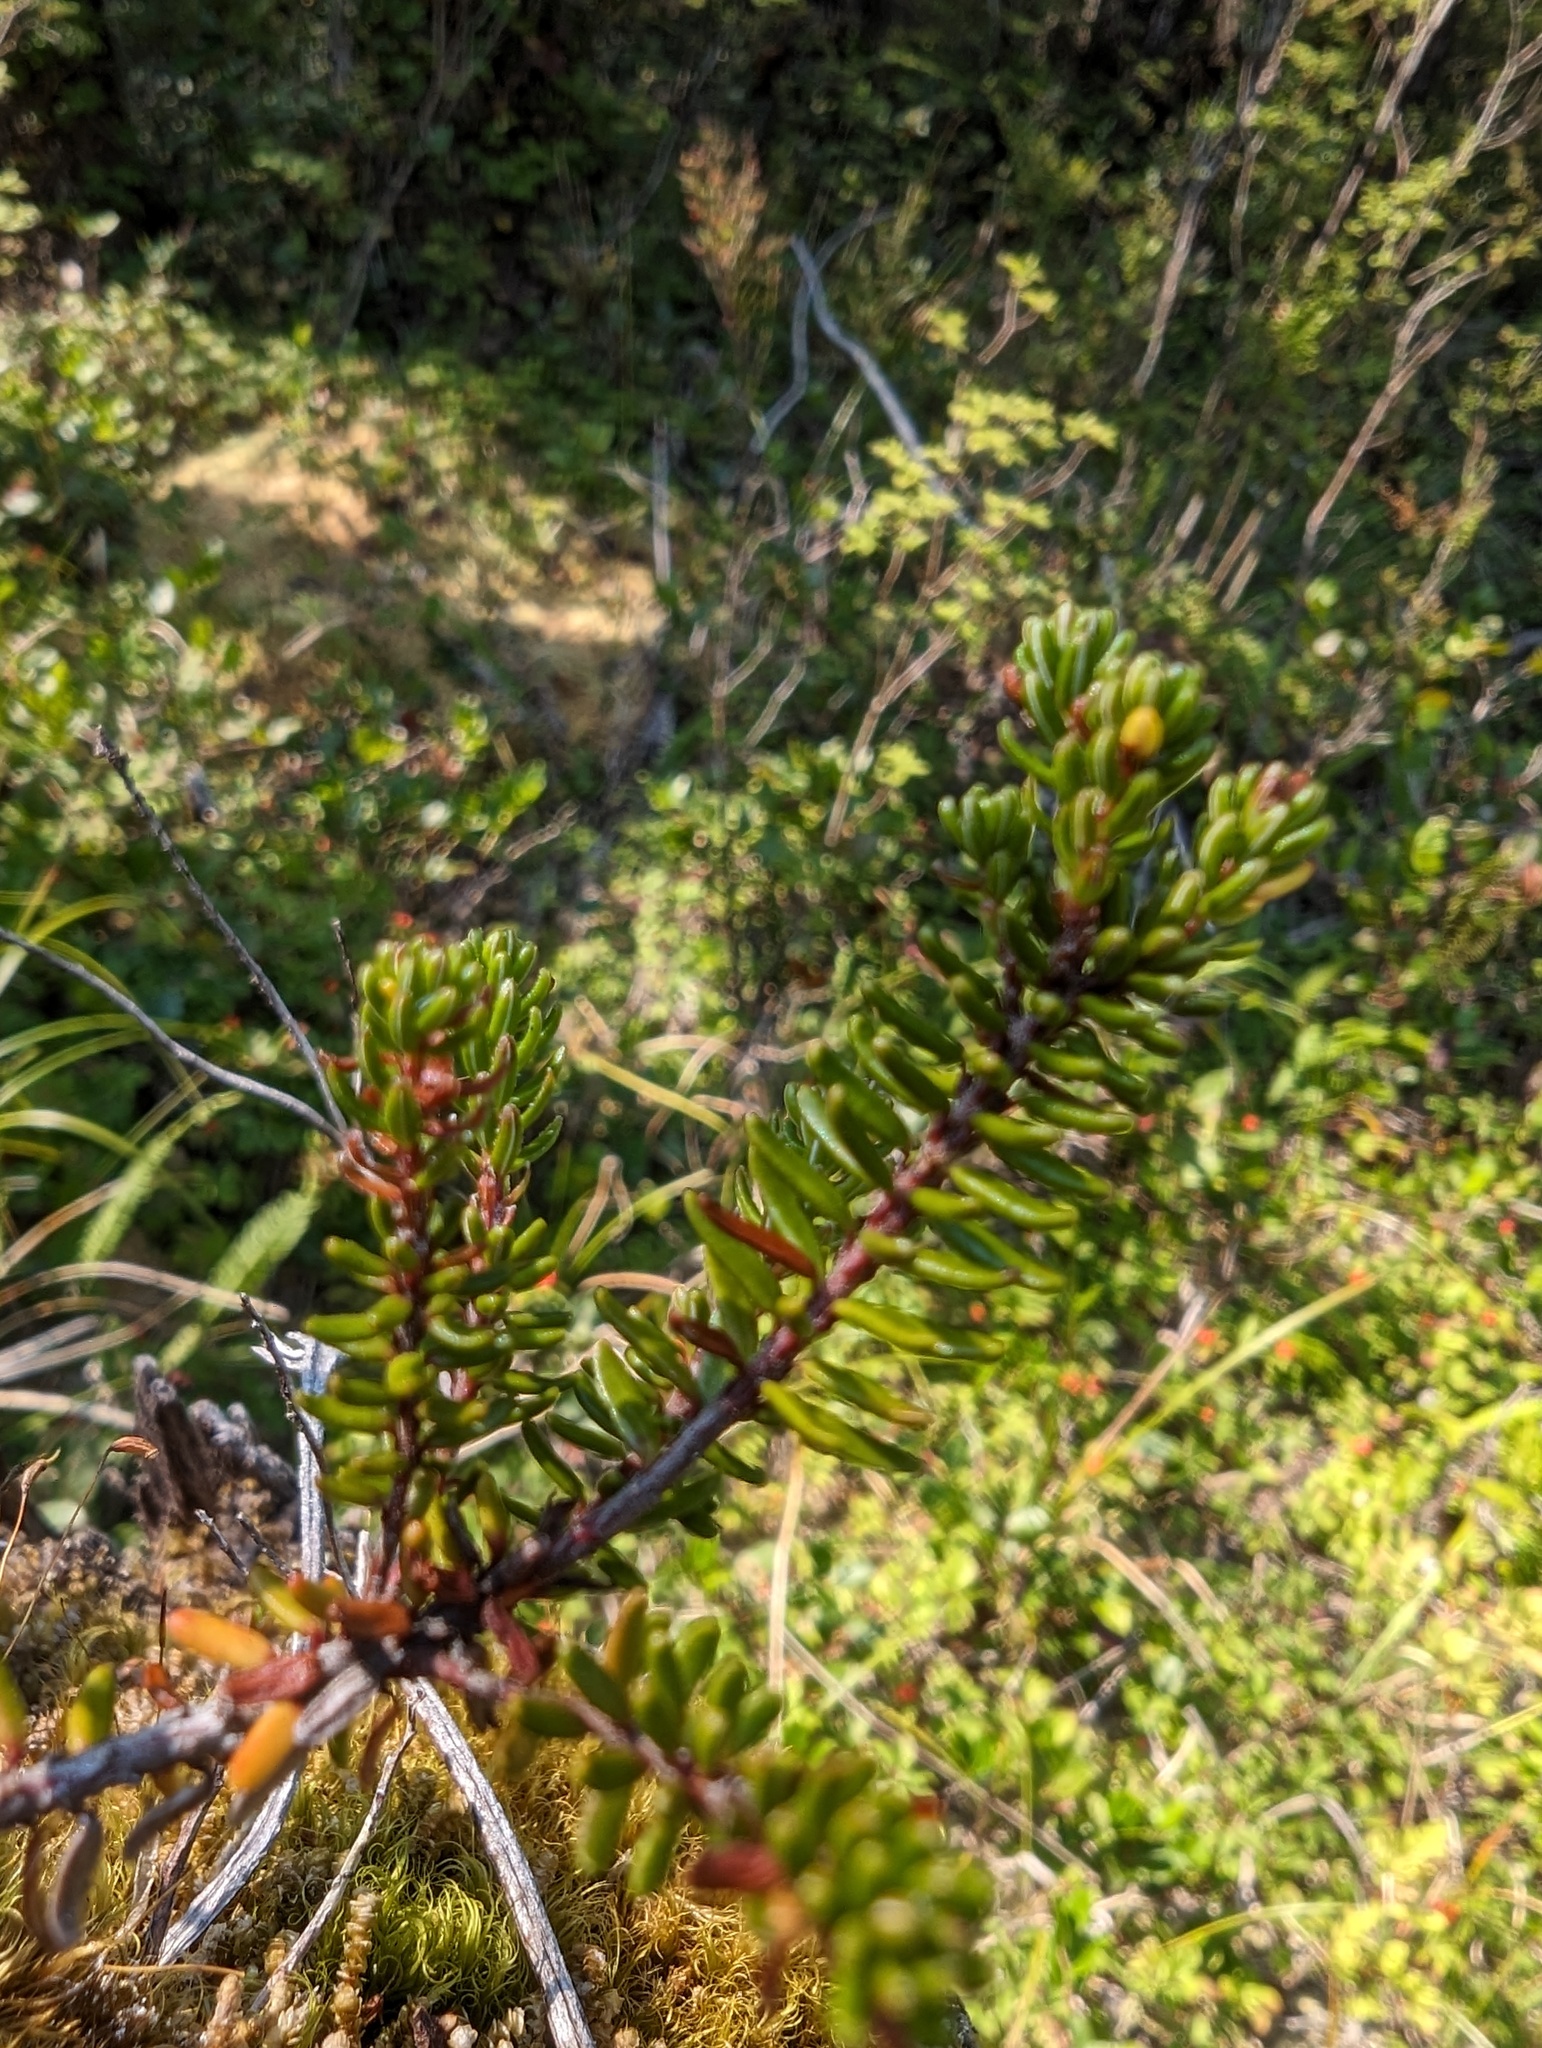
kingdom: Plantae
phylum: Tracheophyta
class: Magnoliopsida
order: Ericales
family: Ericaceae
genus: Empetrum
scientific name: Empetrum nigrum
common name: Black crowberry
